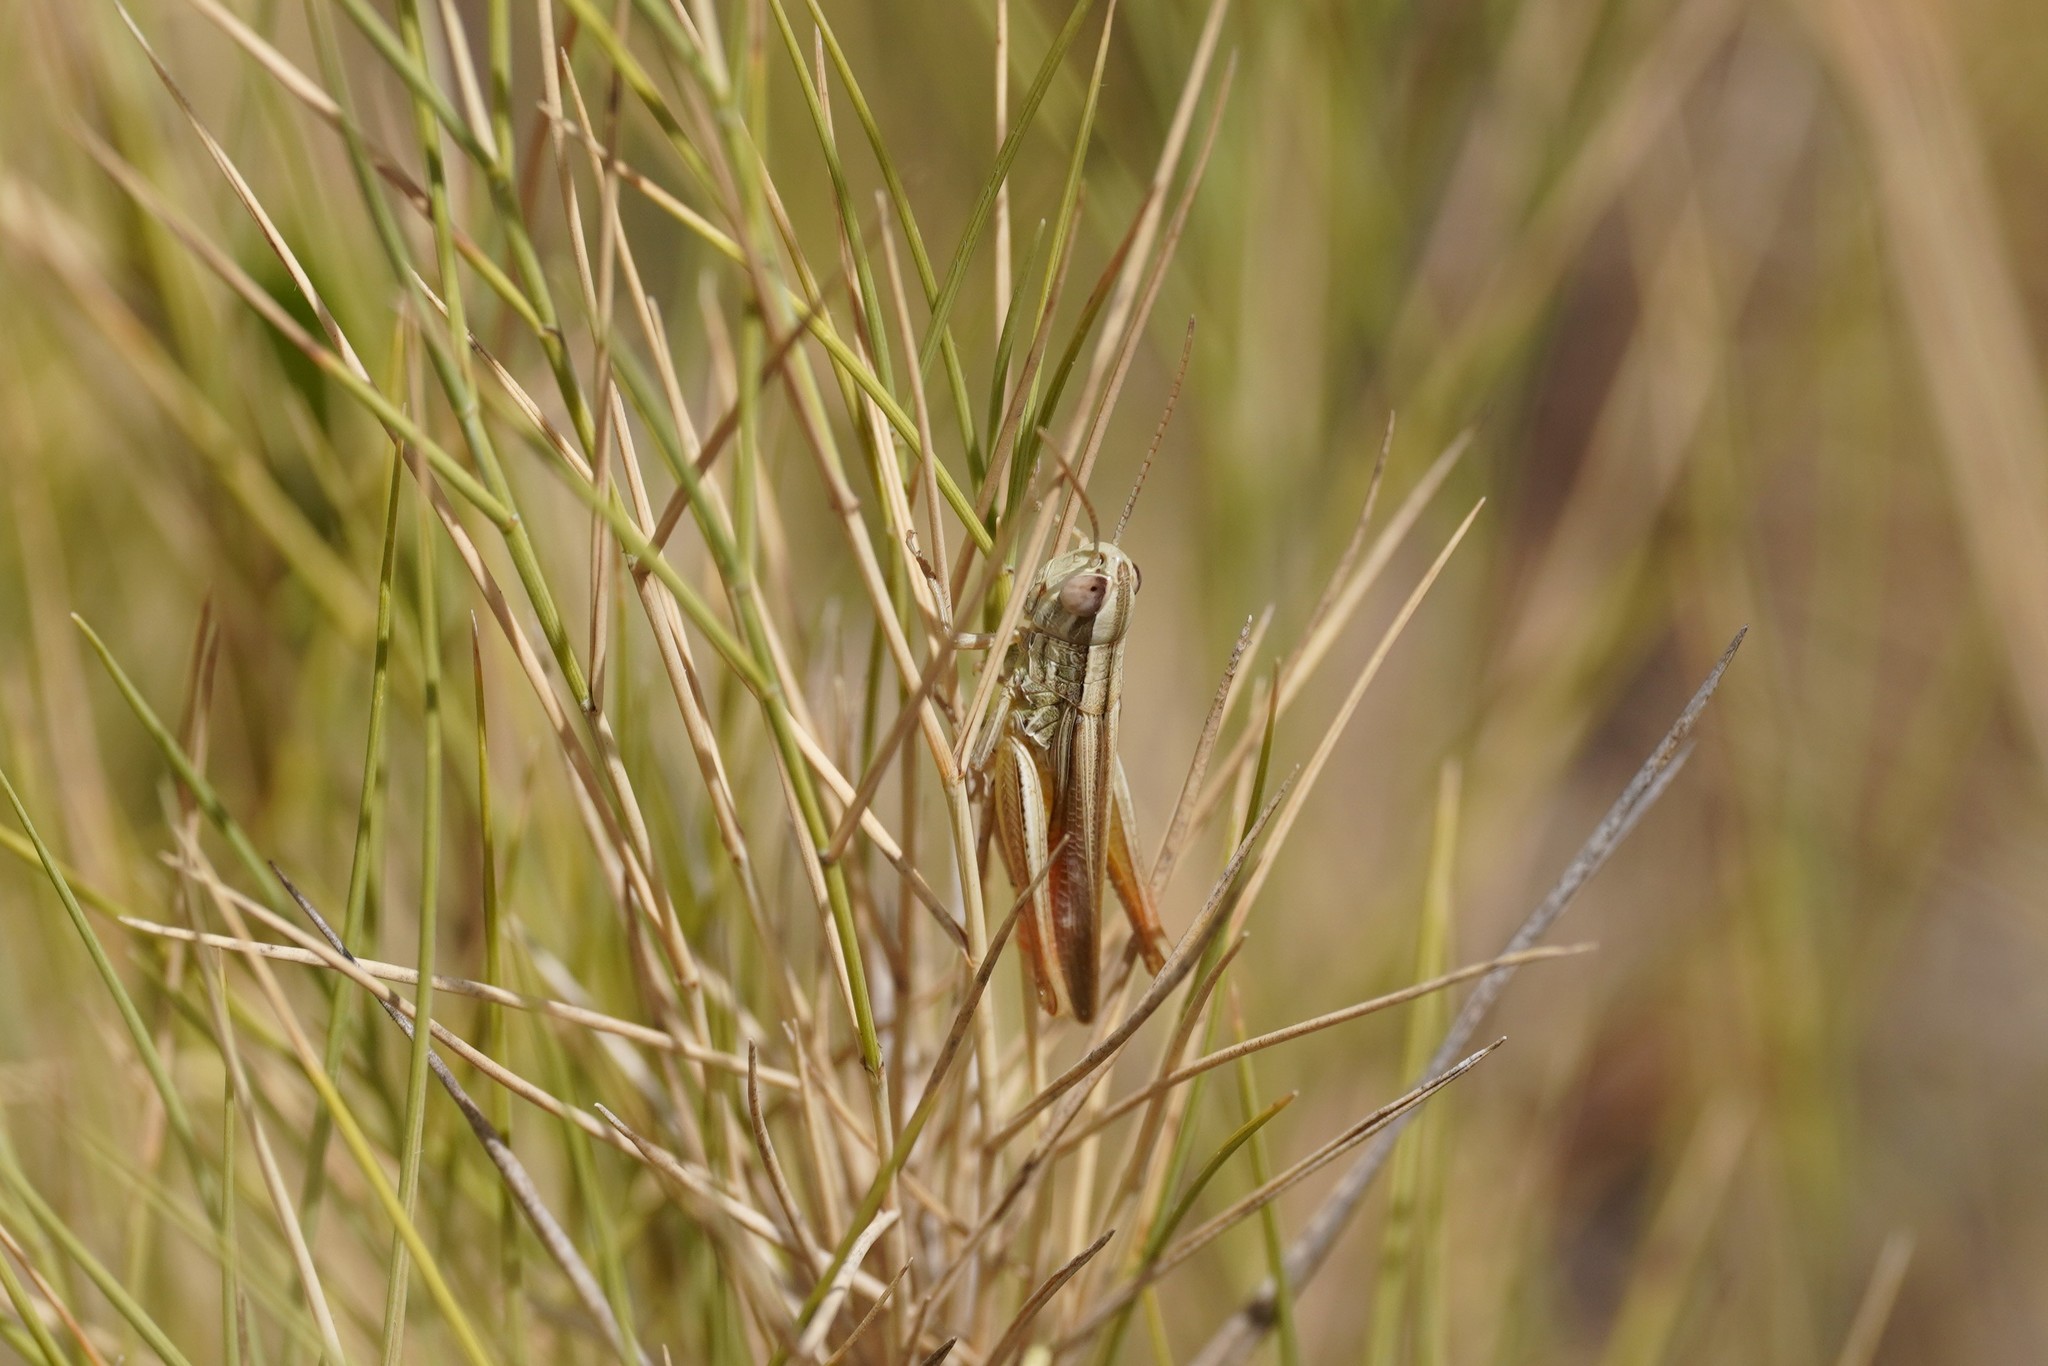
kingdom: Animalia
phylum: Arthropoda
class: Insecta
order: Orthoptera
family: Acrididae
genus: Euchorthippus
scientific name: Euchorthippus chopardi
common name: Iberian straw grasshopper
